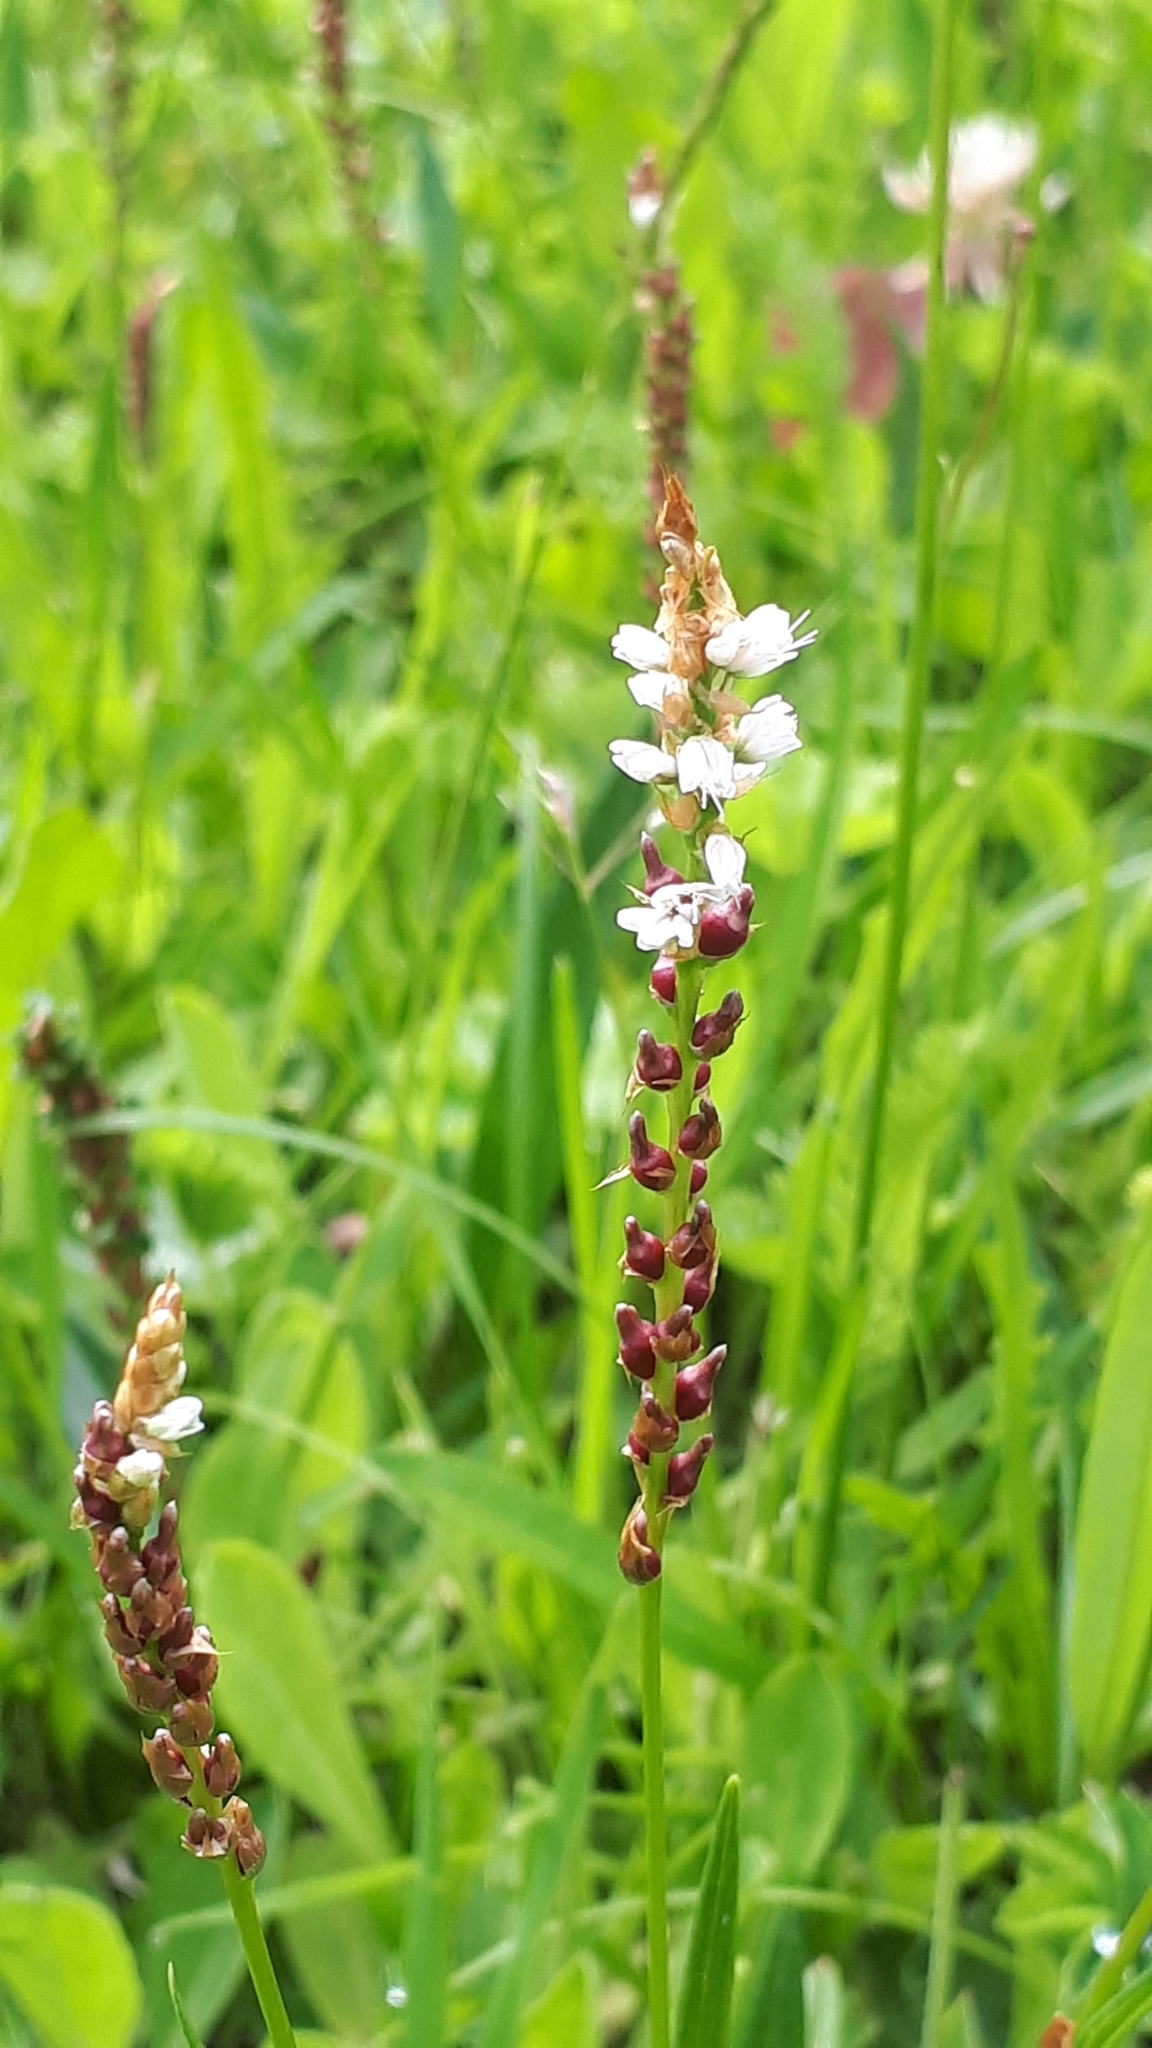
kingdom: Plantae
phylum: Tracheophyta
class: Magnoliopsida
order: Caryophyllales
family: Polygonaceae
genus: Bistorta
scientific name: Bistorta vivipara
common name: Alpine bistort
